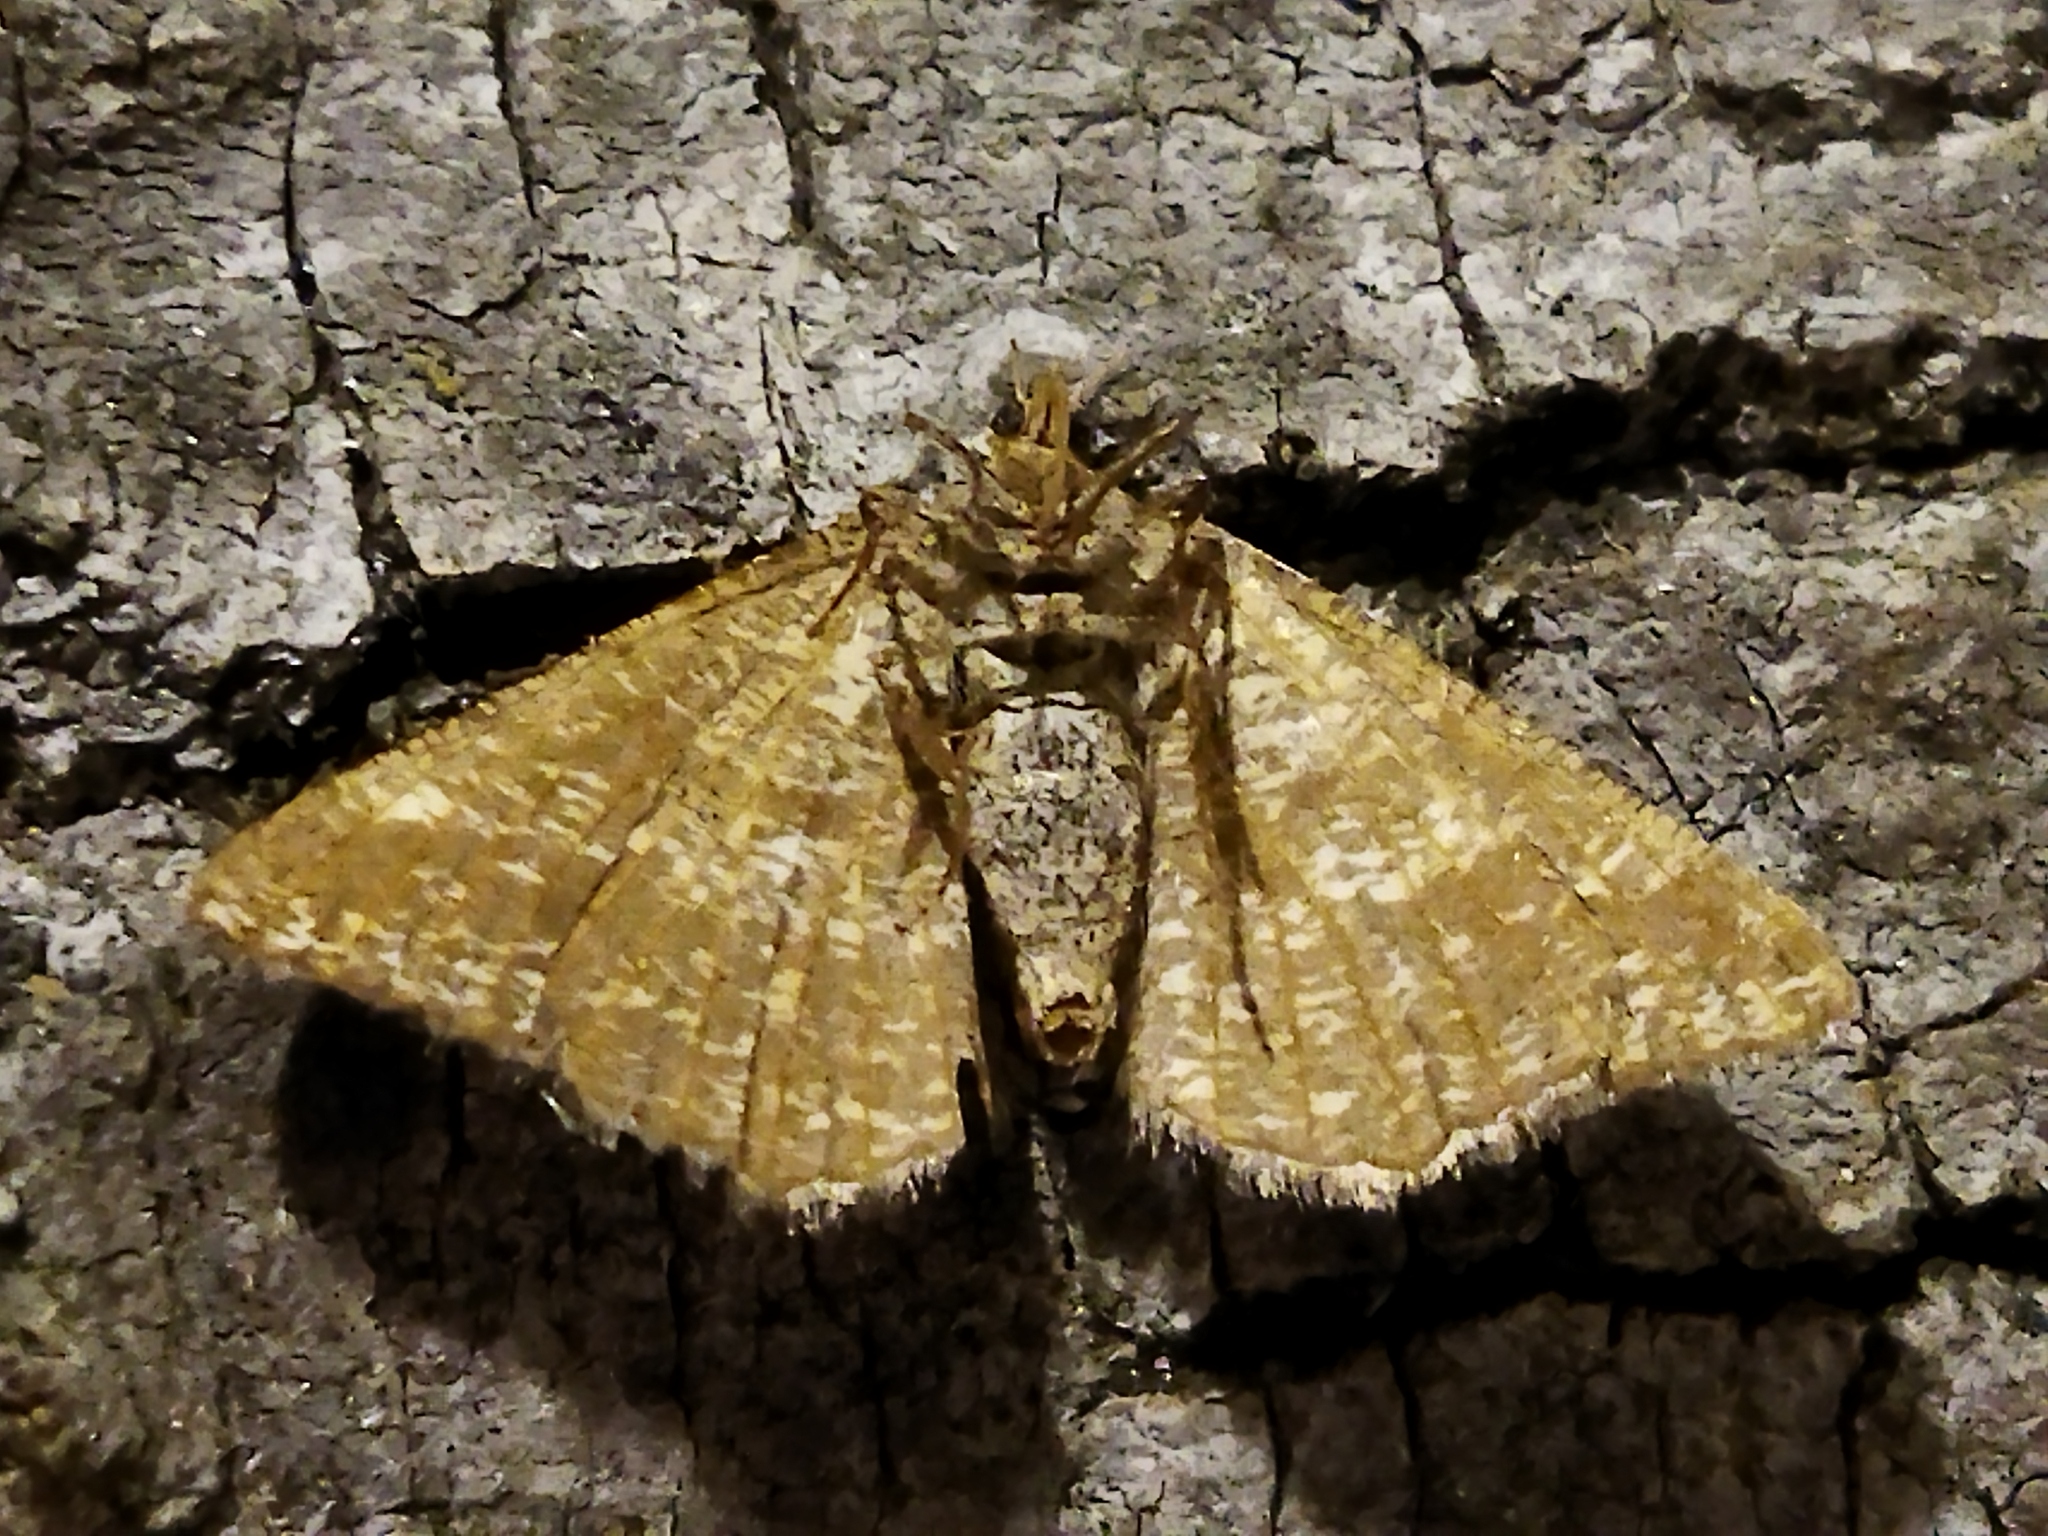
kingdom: Animalia
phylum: Arthropoda
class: Insecta
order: Lepidoptera
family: Geometridae
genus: Tephrina
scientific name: Tephrina murinaria
